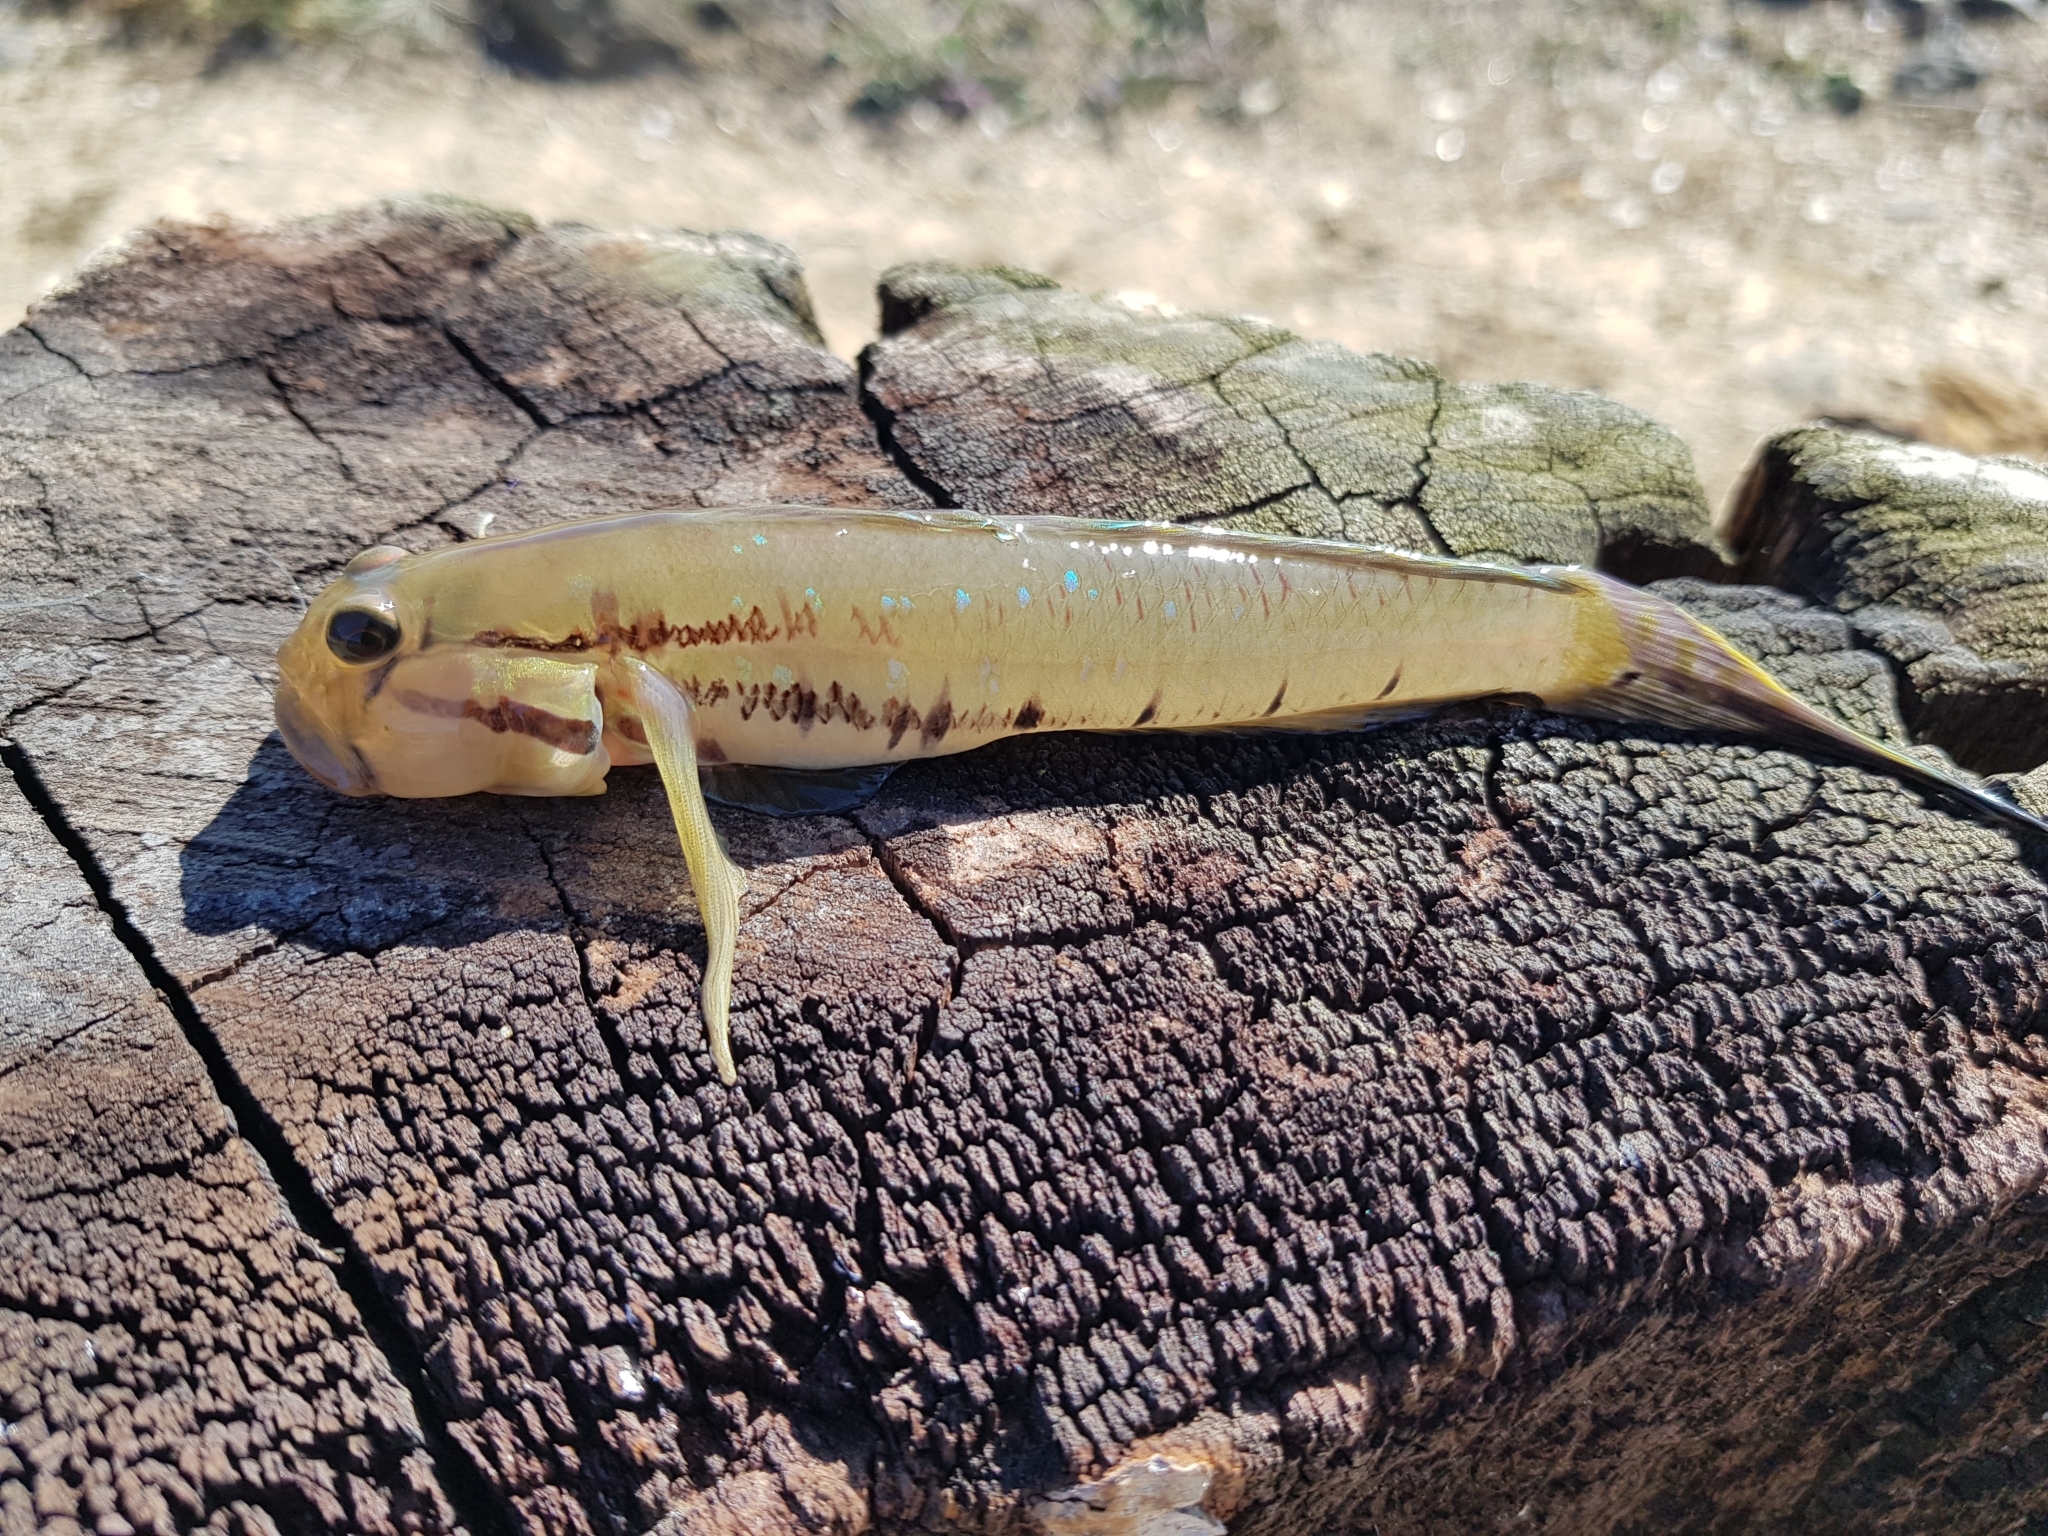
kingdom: Animalia
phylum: Chordata
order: Perciformes
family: Gobiidae
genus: Arenigobius
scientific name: Arenigobius bifrenatus
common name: Bridled goby
